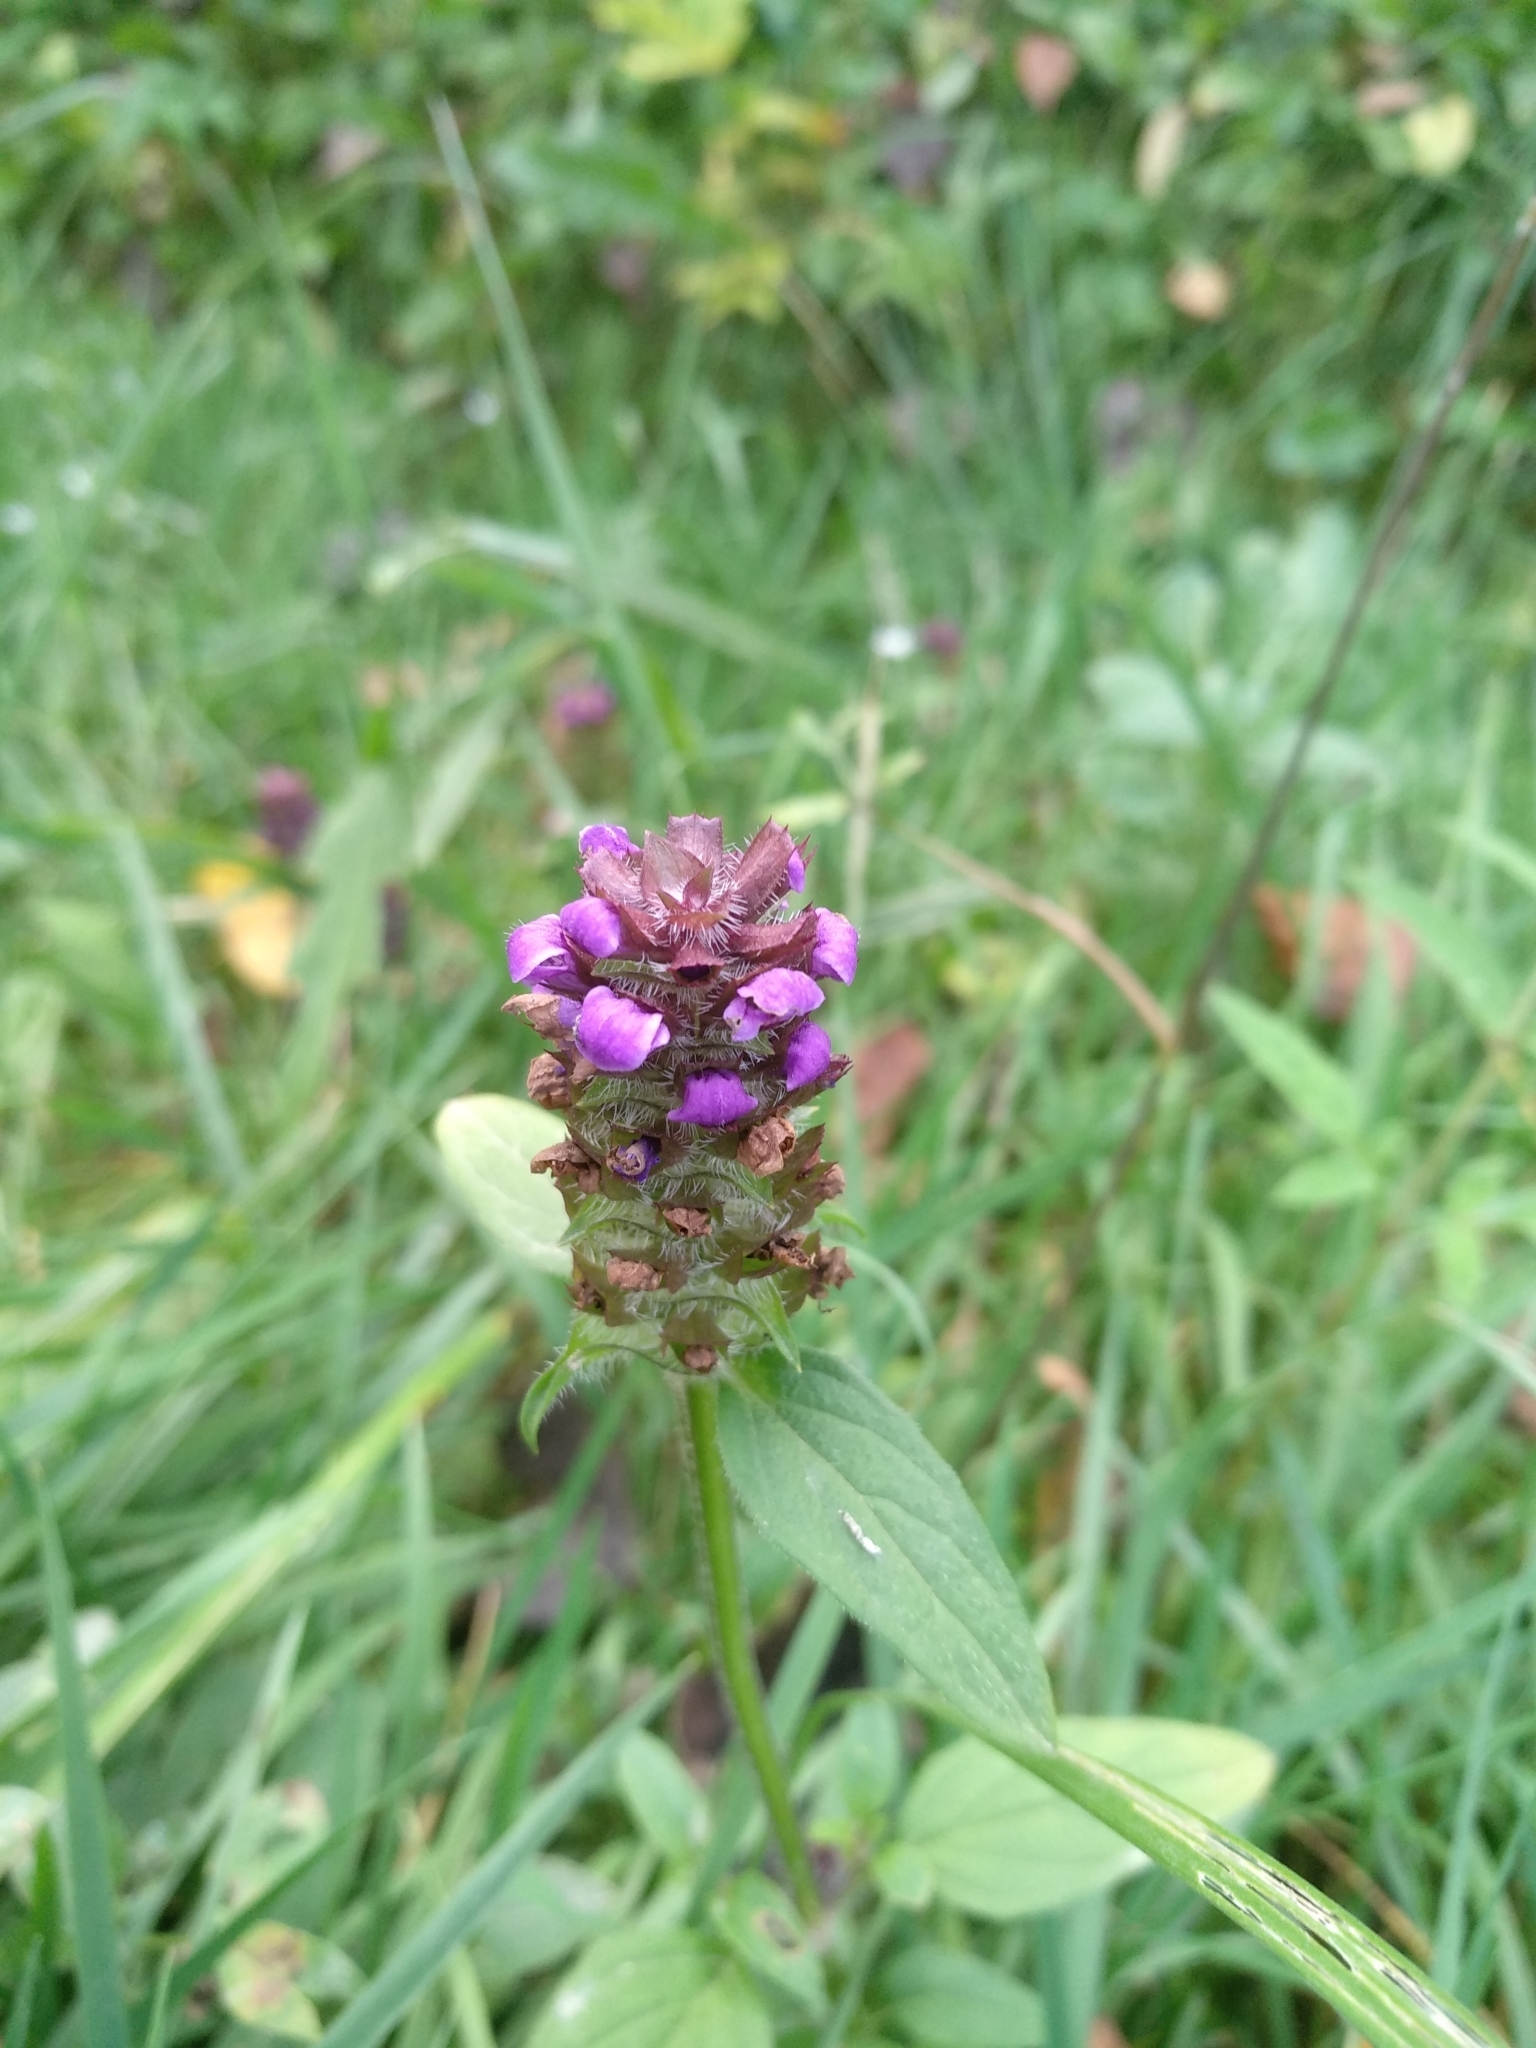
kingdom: Plantae
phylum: Tracheophyta
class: Magnoliopsida
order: Lamiales
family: Lamiaceae
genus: Prunella
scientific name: Prunella vulgaris
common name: Heal-all
